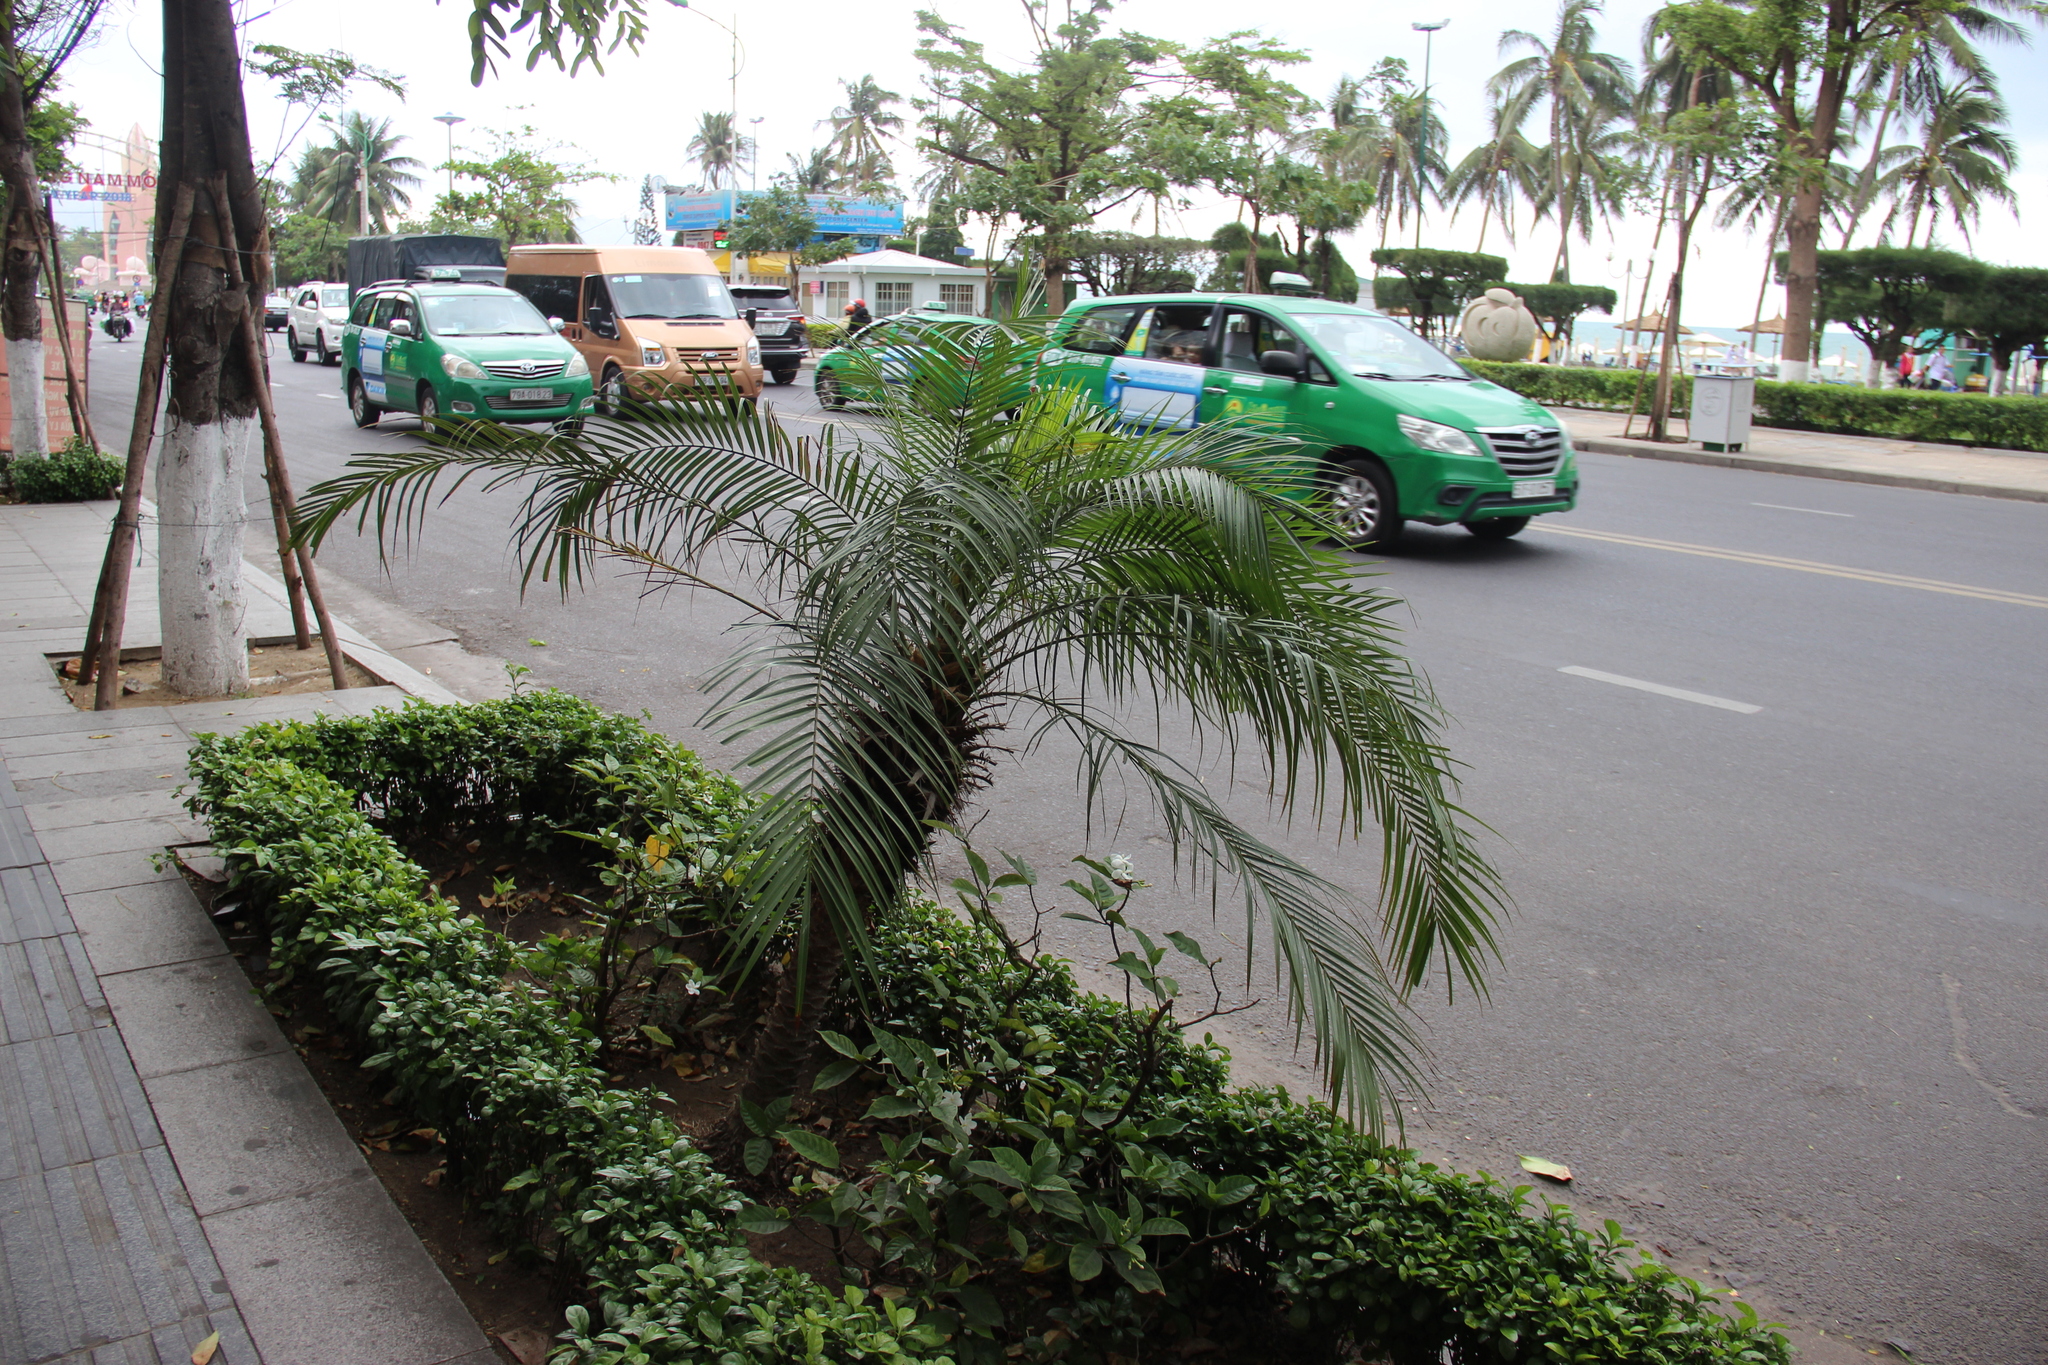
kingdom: Plantae
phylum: Tracheophyta
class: Liliopsida
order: Arecales
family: Arecaceae
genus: Phoenix
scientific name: Phoenix roebelenii
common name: Roebelin palm
